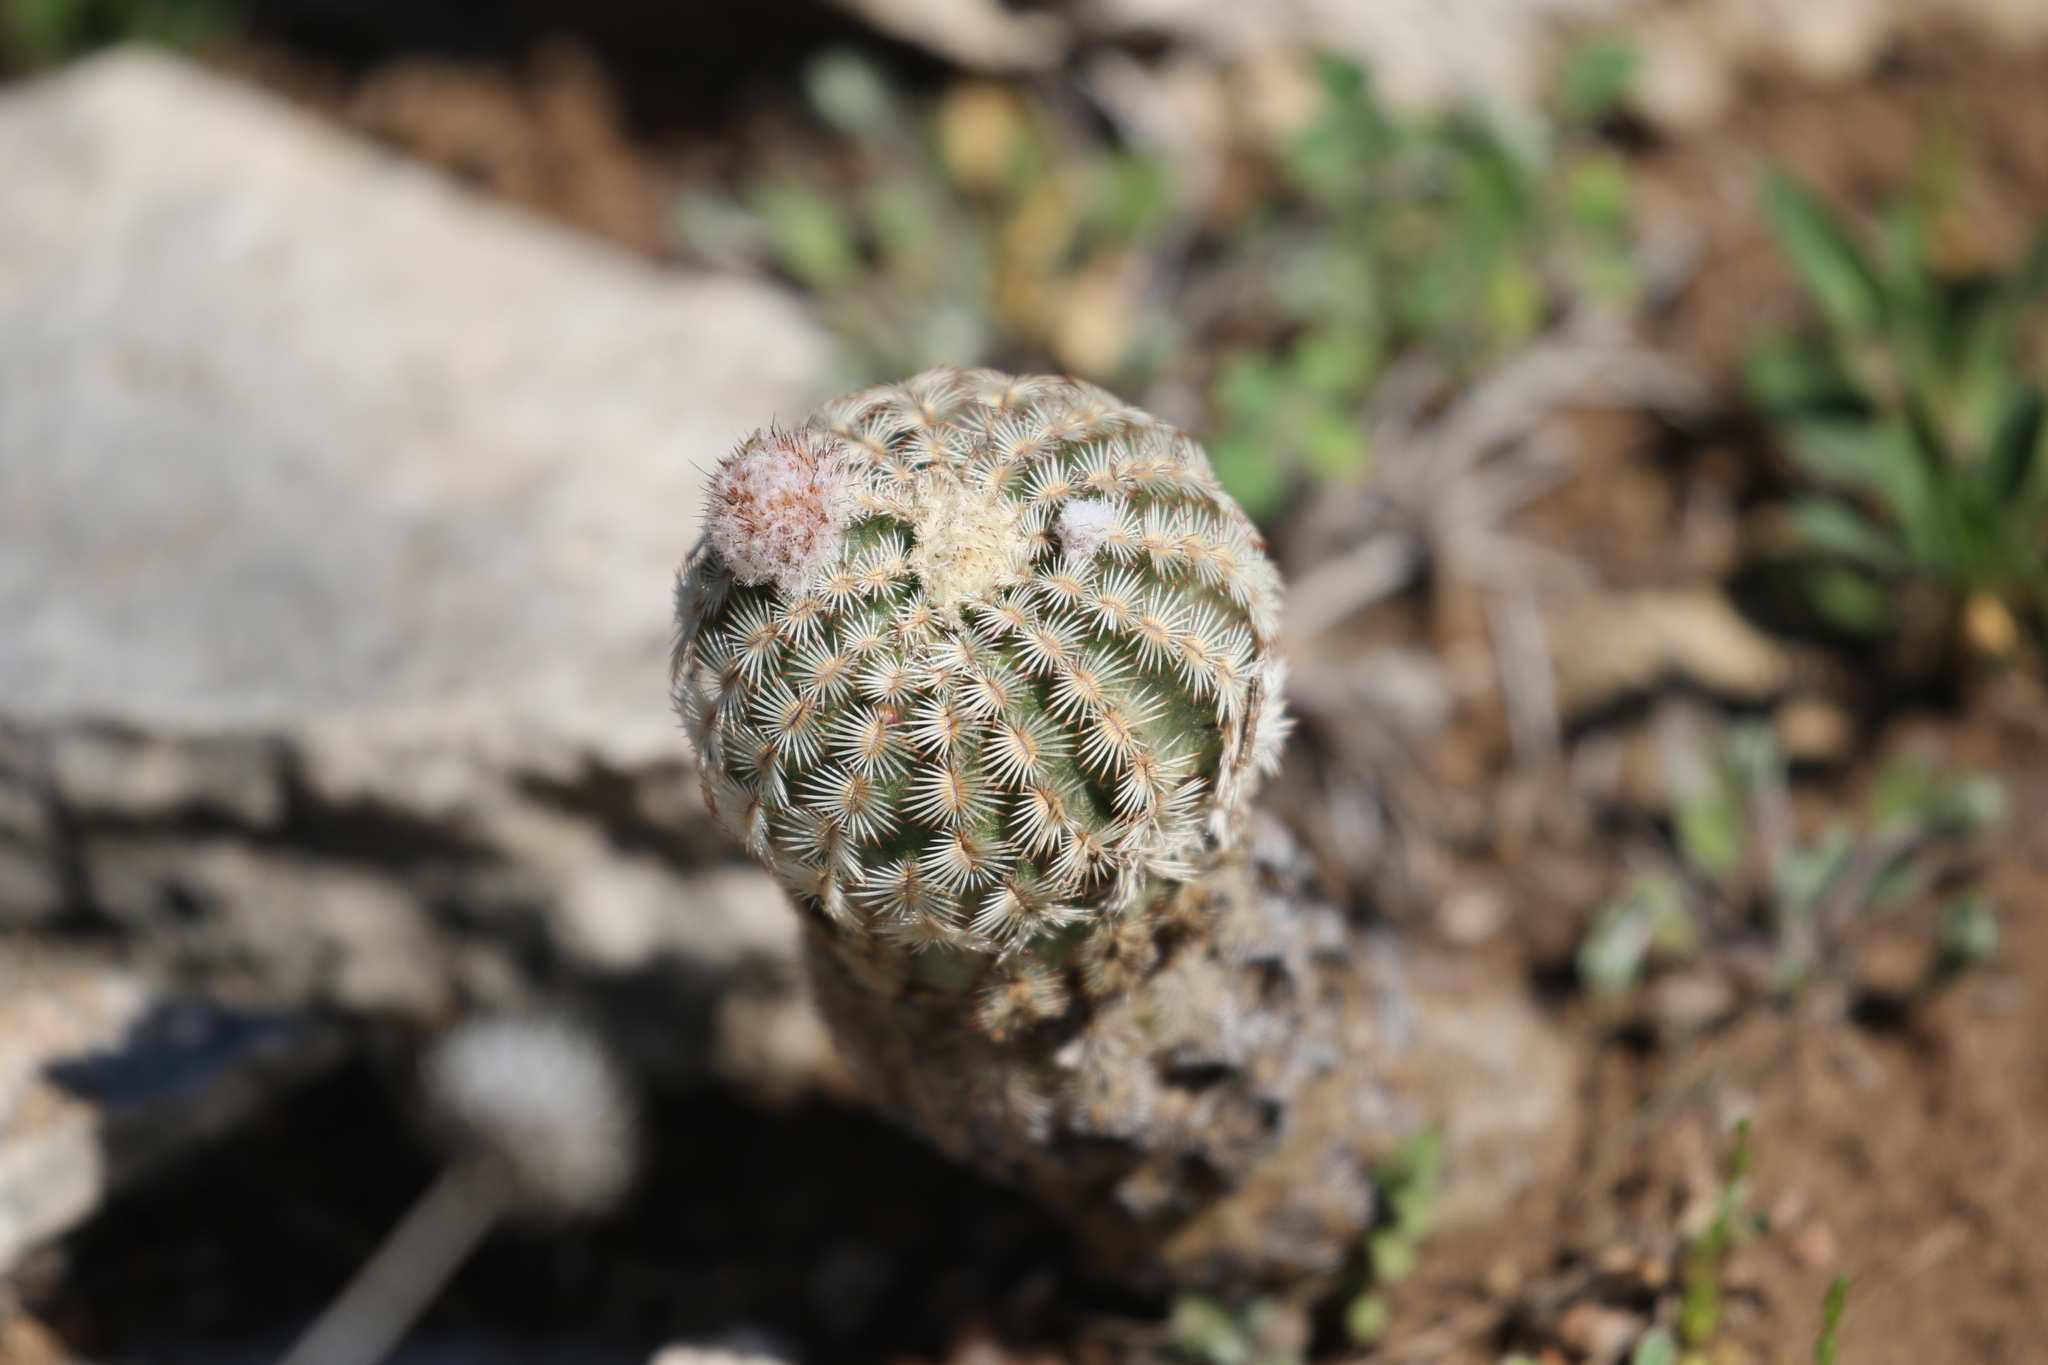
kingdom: Plantae
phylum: Tracheophyta
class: Magnoliopsida
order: Caryophyllales
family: Cactaceae
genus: Echinocereus
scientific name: Echinocereus reichenbachii
